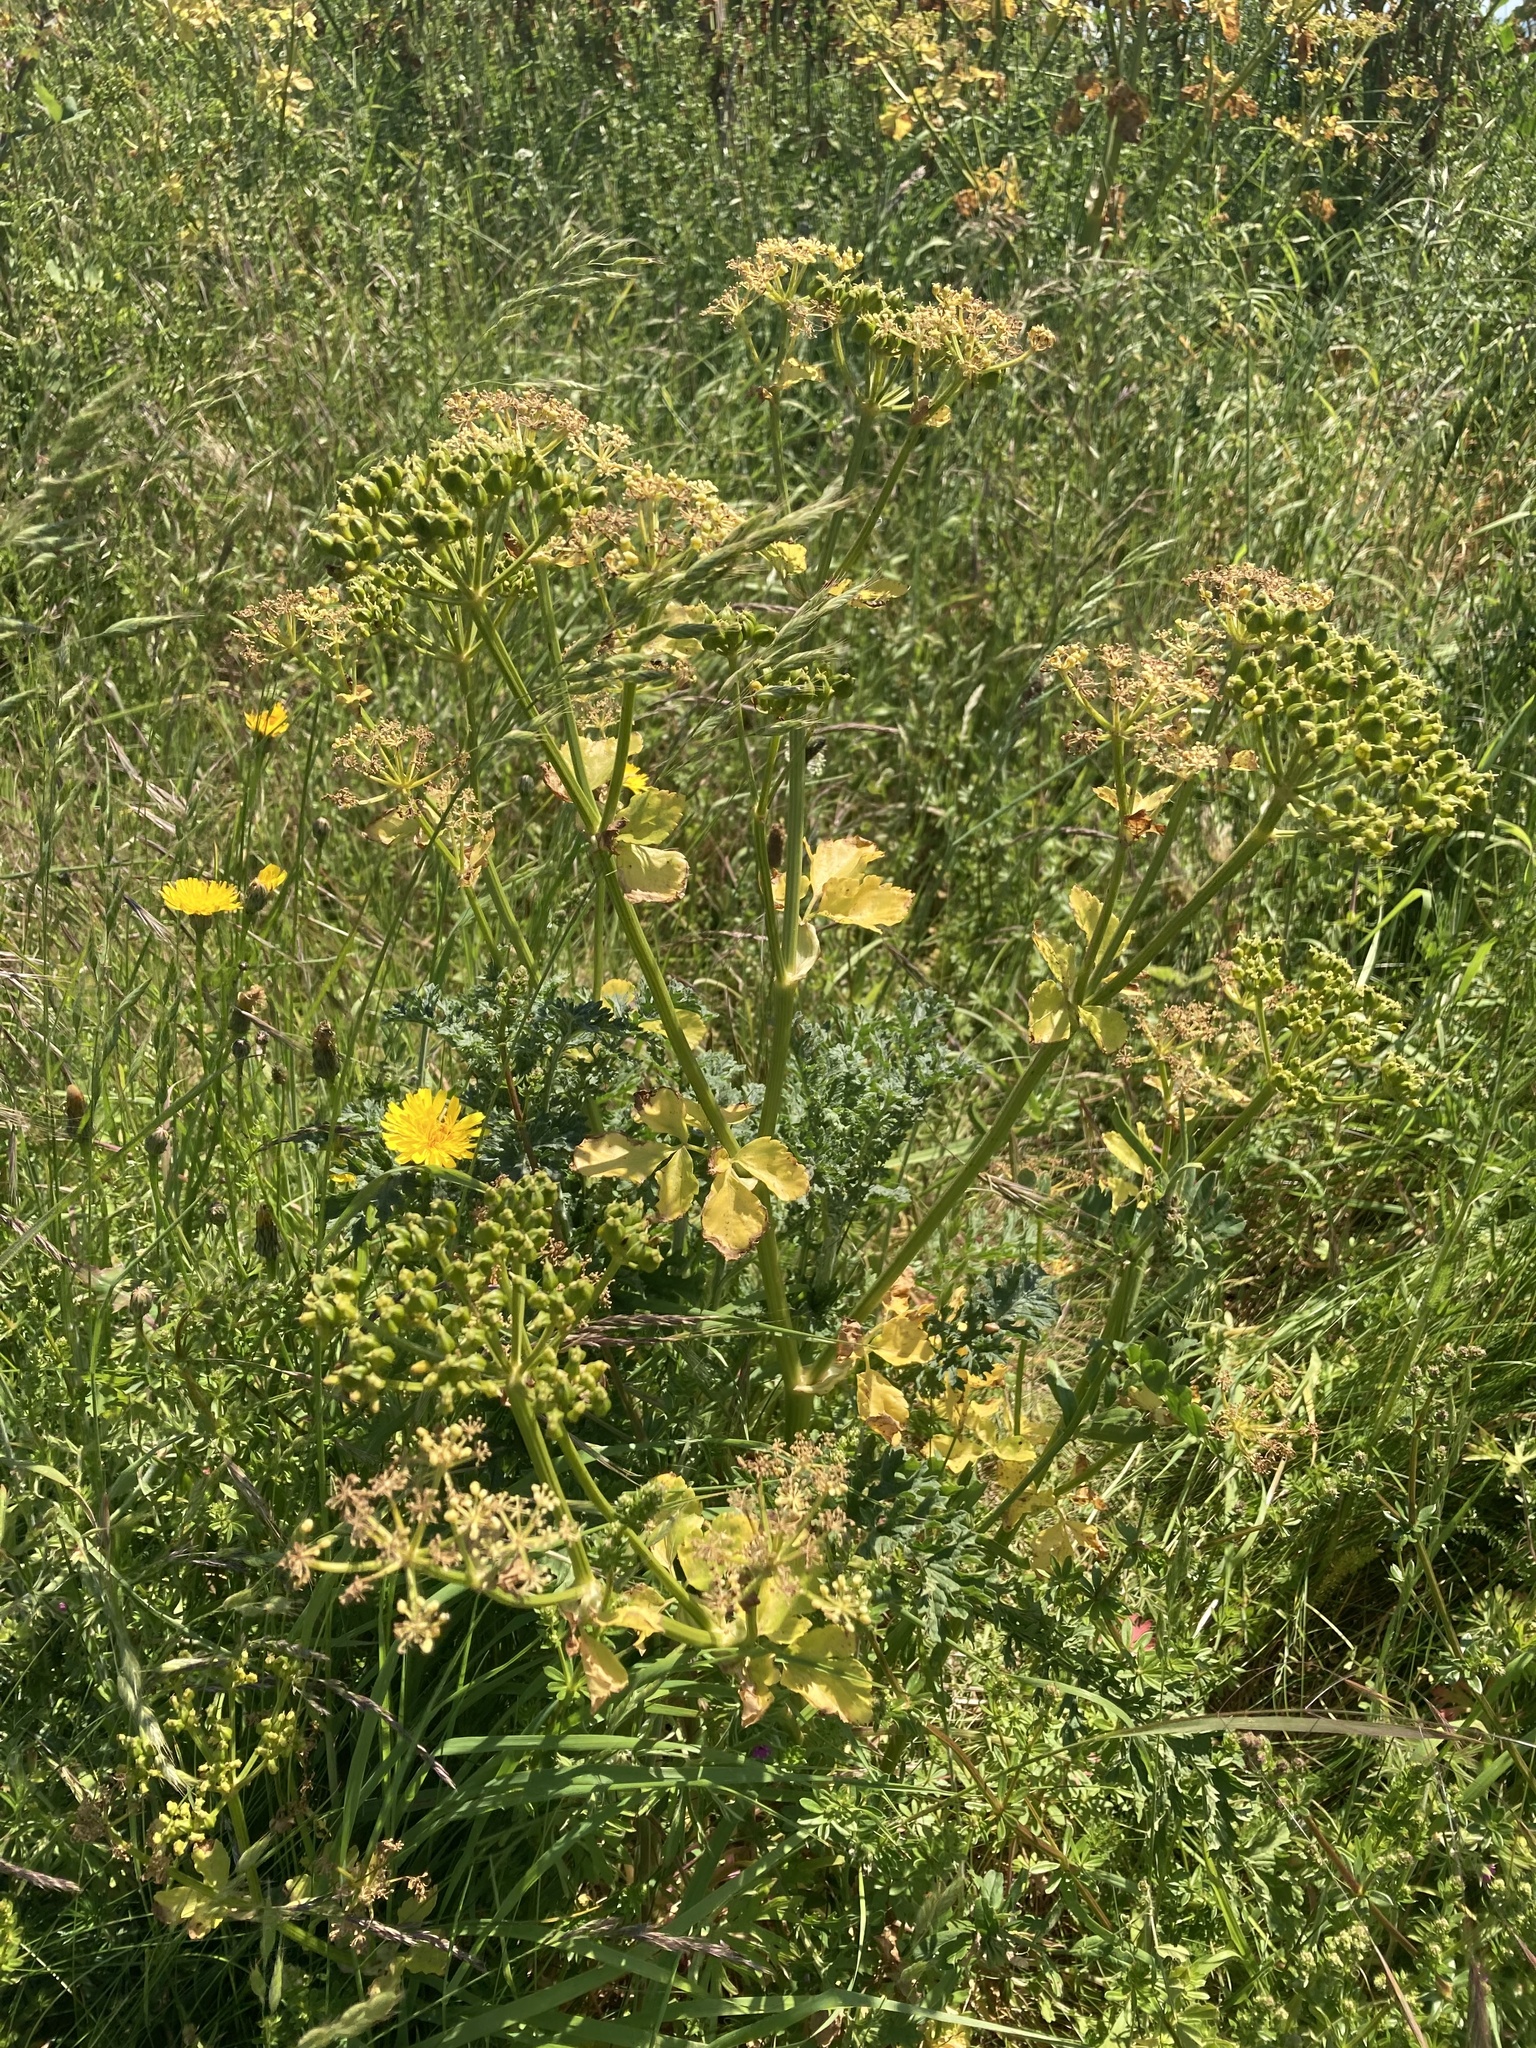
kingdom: Plantae
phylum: Tracheophyta
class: Magnoliopsida
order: Apiales
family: Apiaceae
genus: Smyrnium
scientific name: Smyrnium olusatrum
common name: Alexanders
